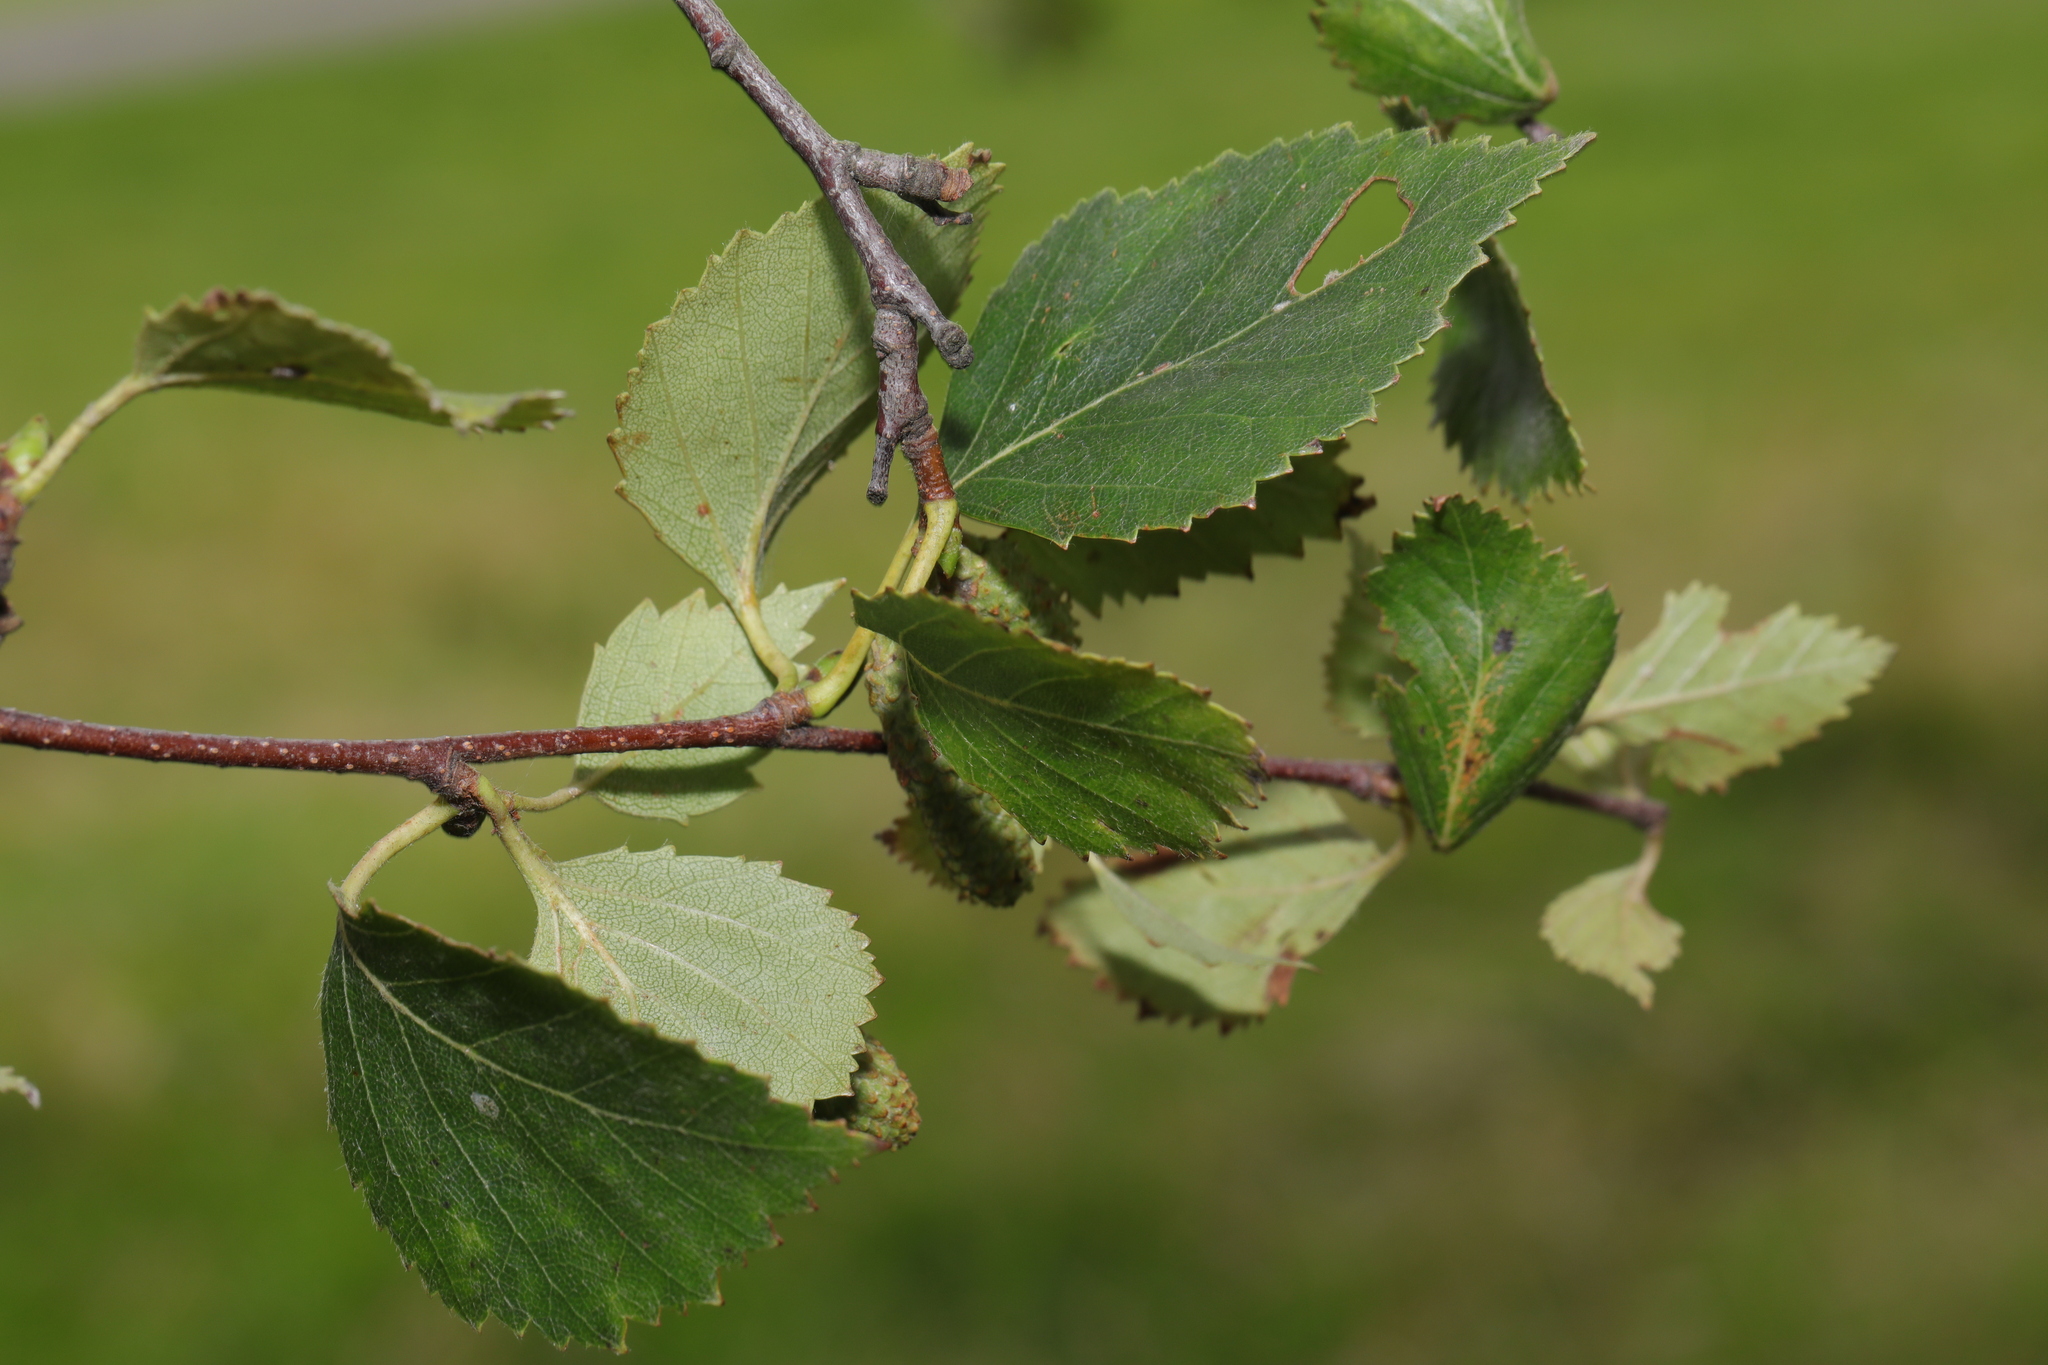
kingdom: Plantae
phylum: Tracheophyta
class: Magnoliopsida
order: Fagales
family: Betulaceae
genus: Betula
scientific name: Betula aurata
